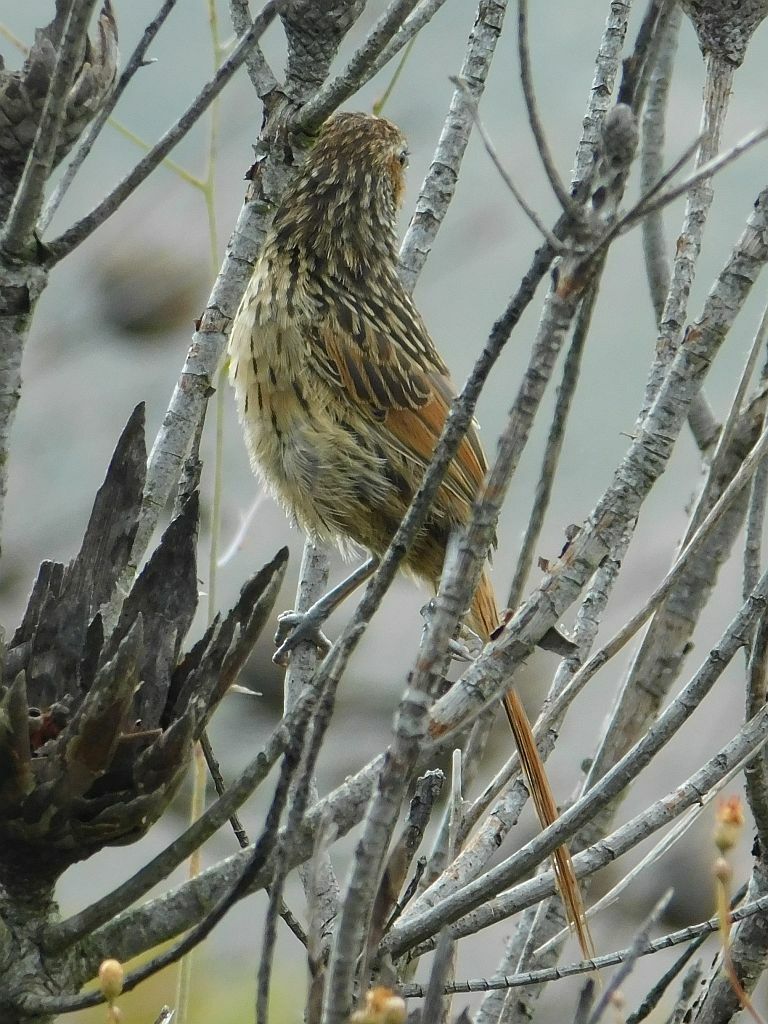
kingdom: Animalia
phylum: Chordata
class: Aves
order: Passeriformes
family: Macrosphenidae
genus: Sphenoeacus
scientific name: Sphenoeacus afer
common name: Cape grassbird
